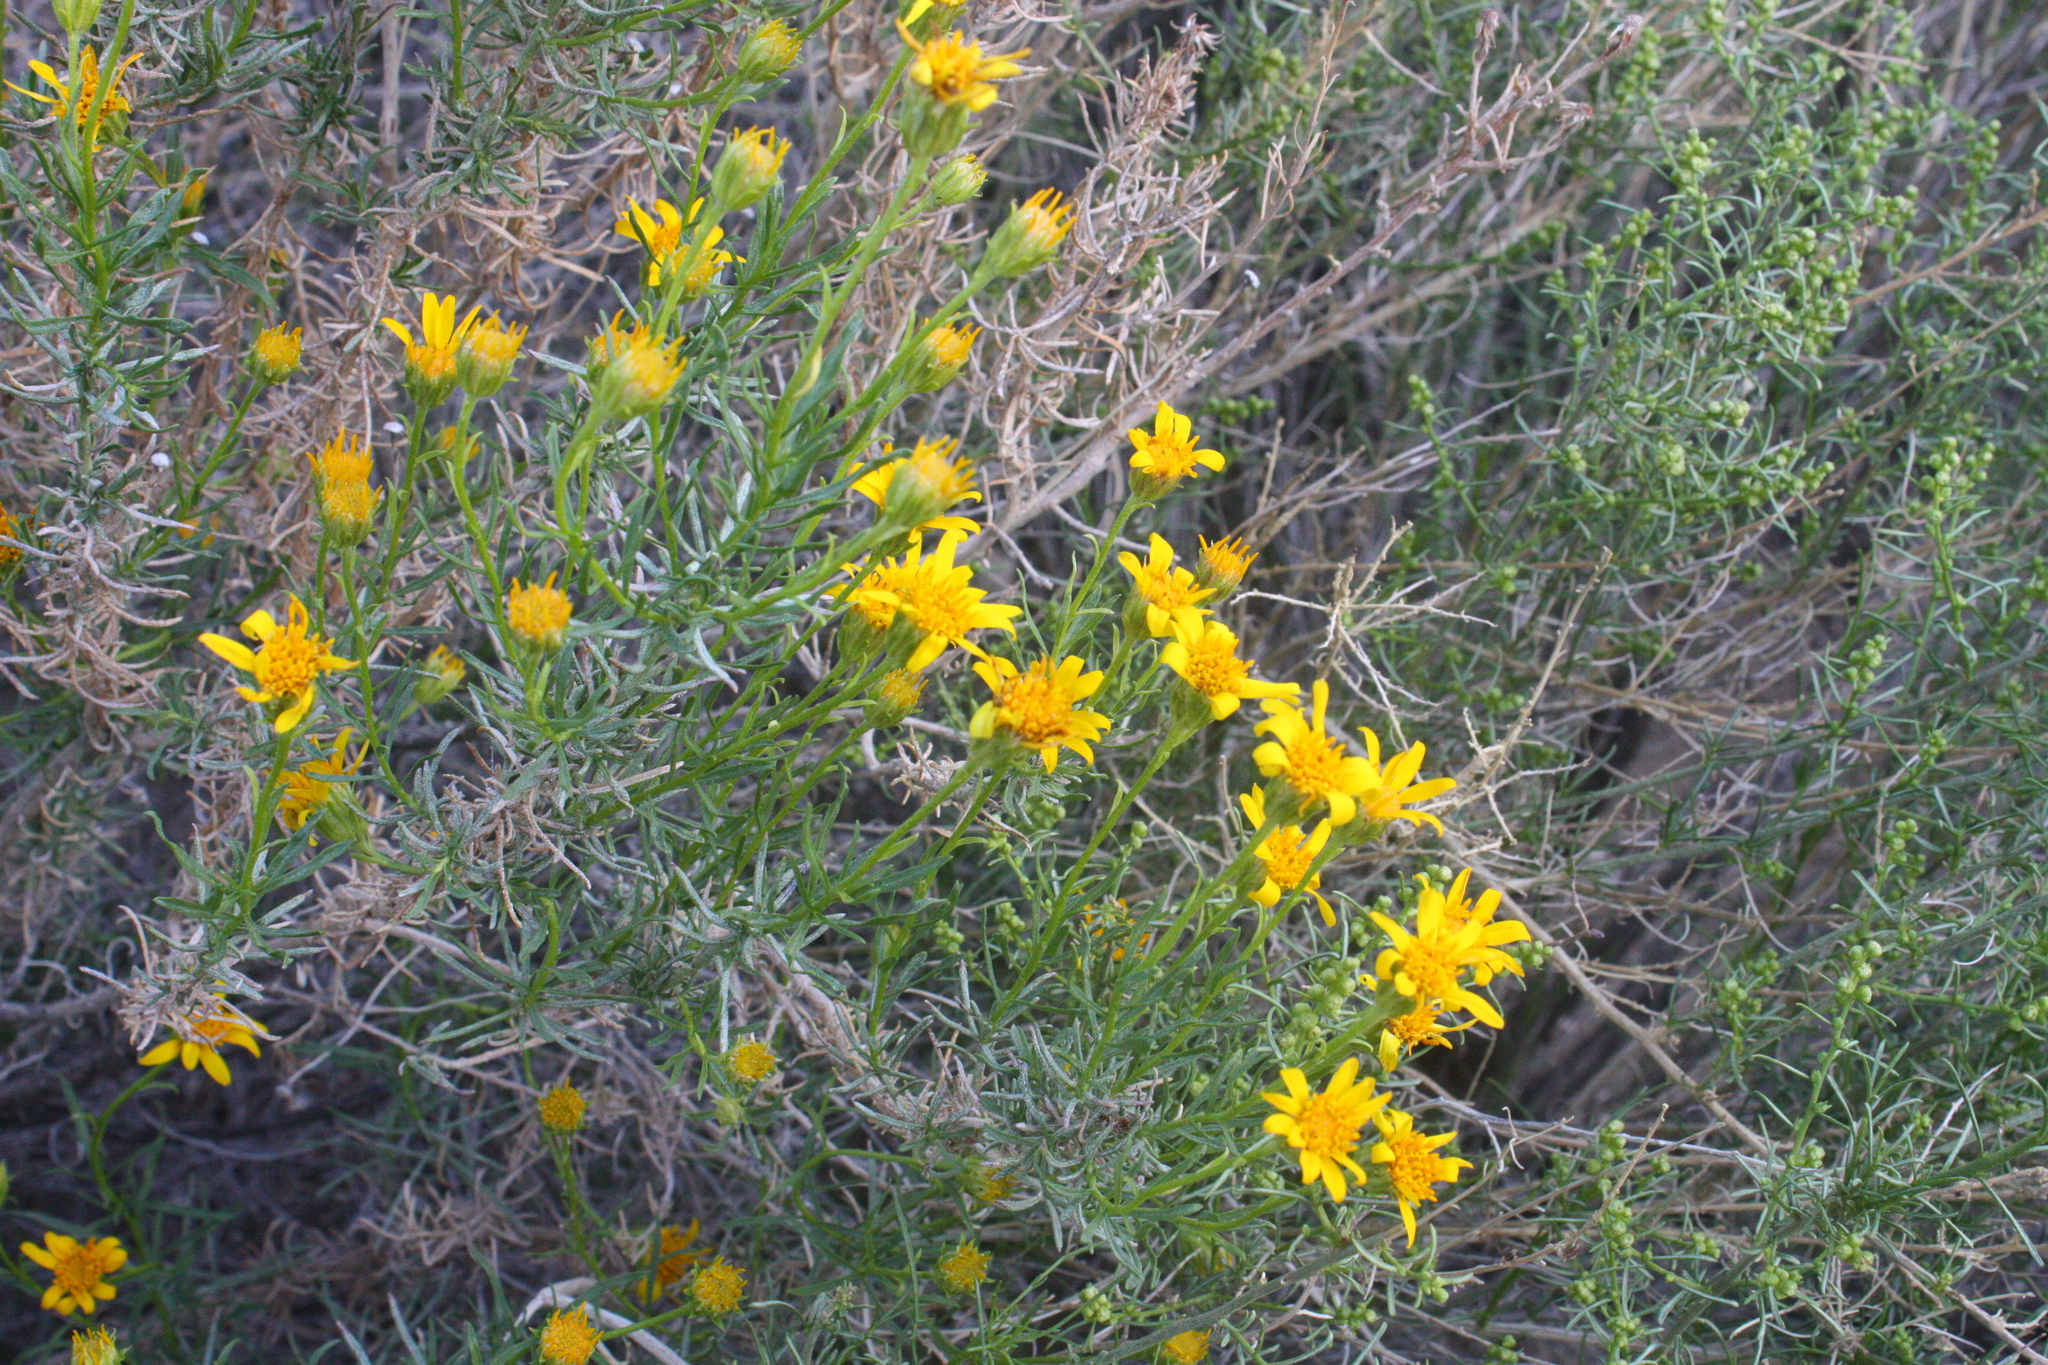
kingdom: Plantae
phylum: Tracheophyta
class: Magnoliopsida
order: Asterales
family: Asteraceae
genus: Ericameria
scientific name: Ericameria linearifolia
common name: Interior goldenbush
